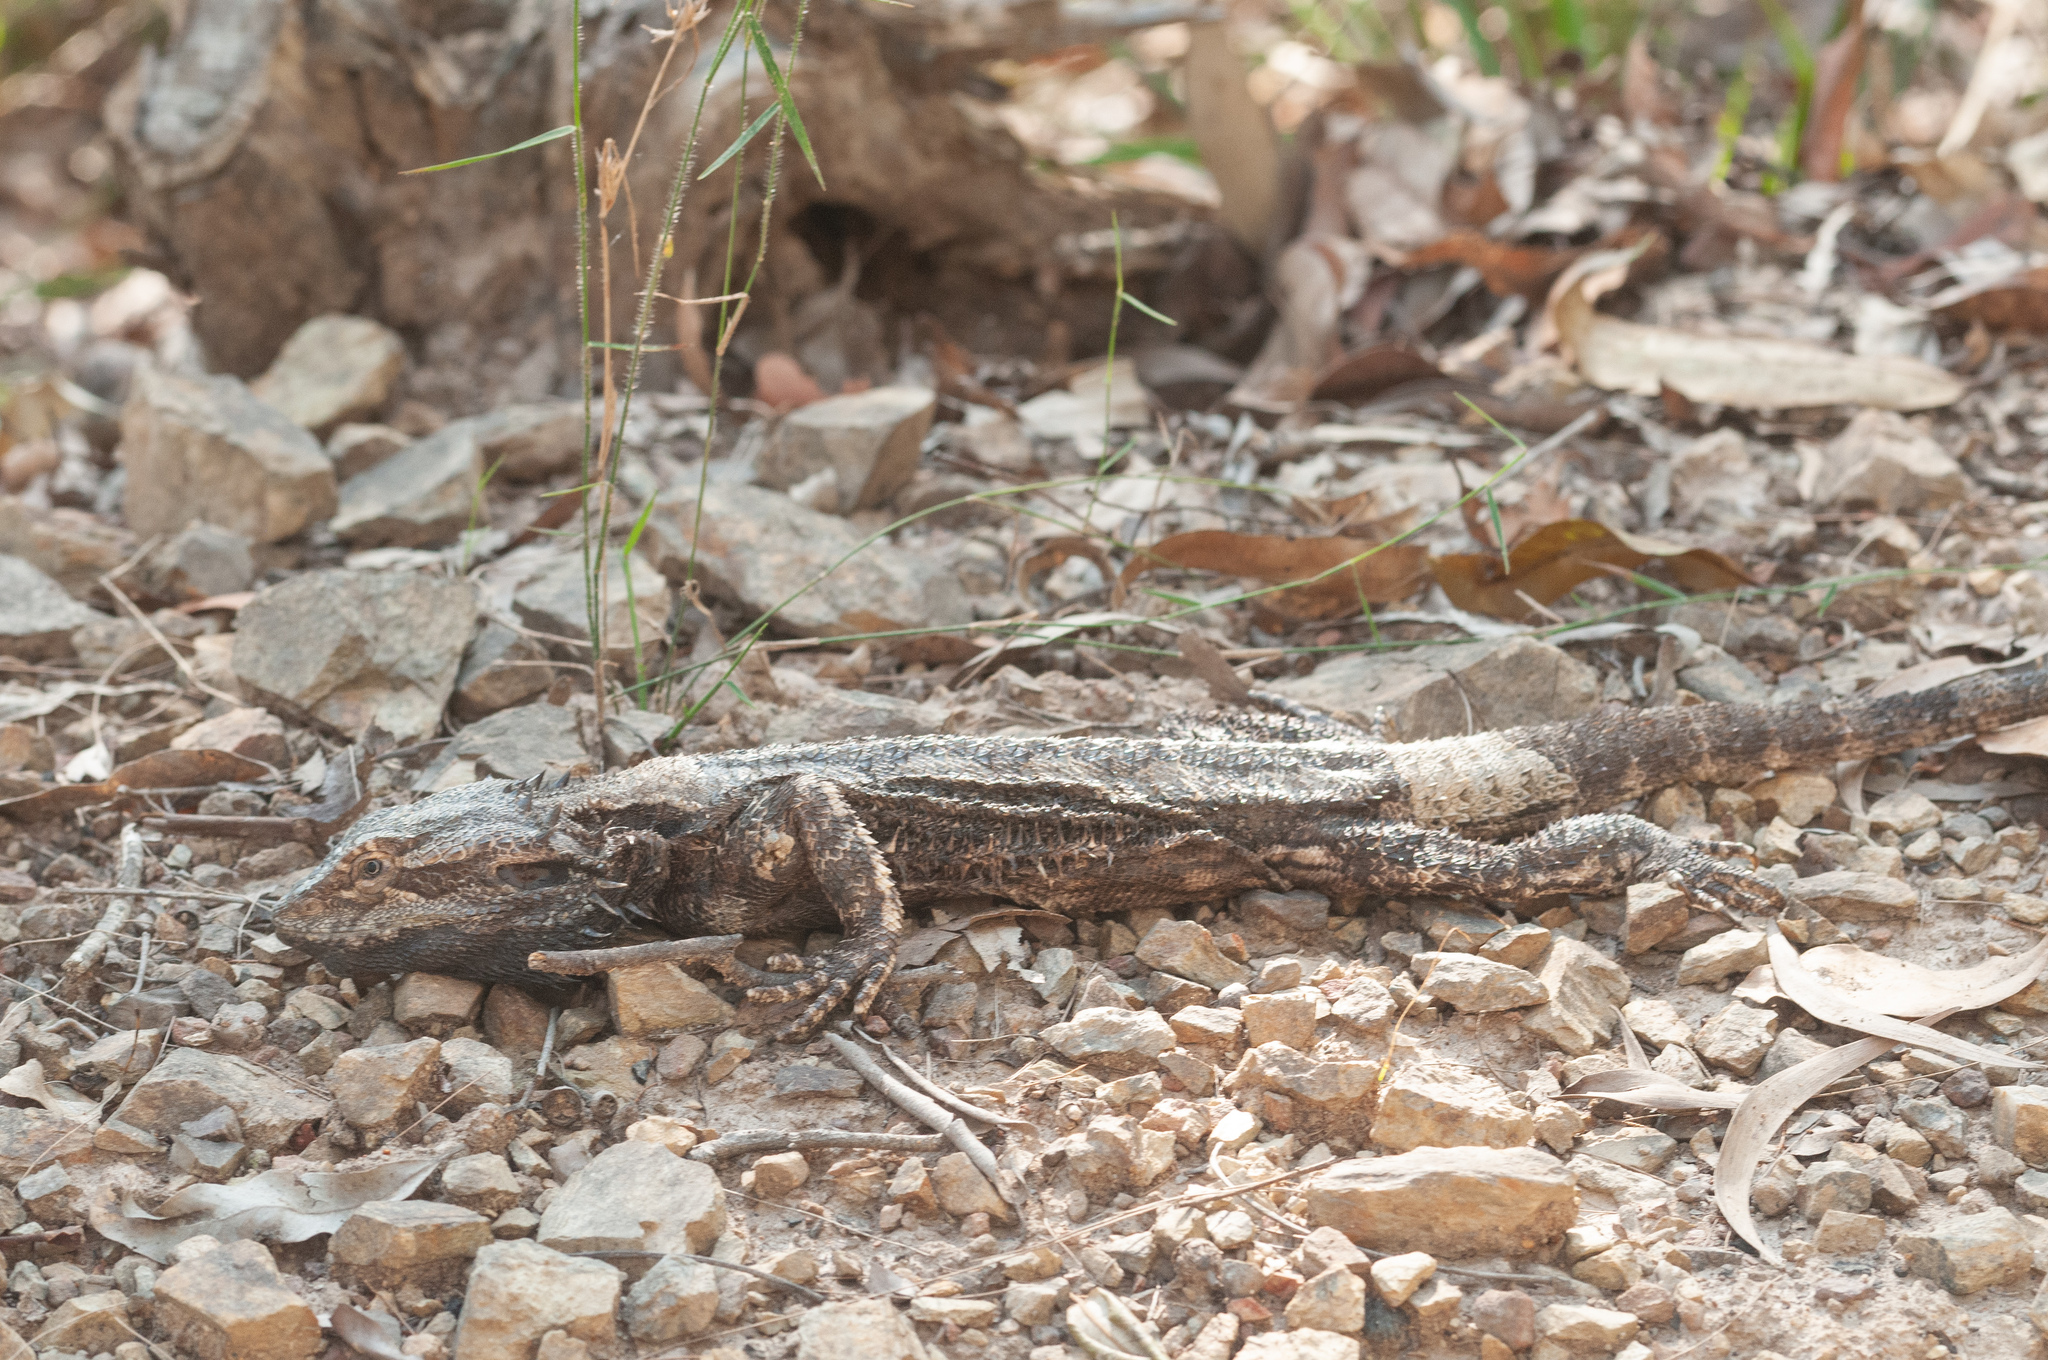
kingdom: Animalia
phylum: Chordata
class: Squamata
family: Agamidae
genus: Pogona
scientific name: Pogona barbata
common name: Bearded dragon
